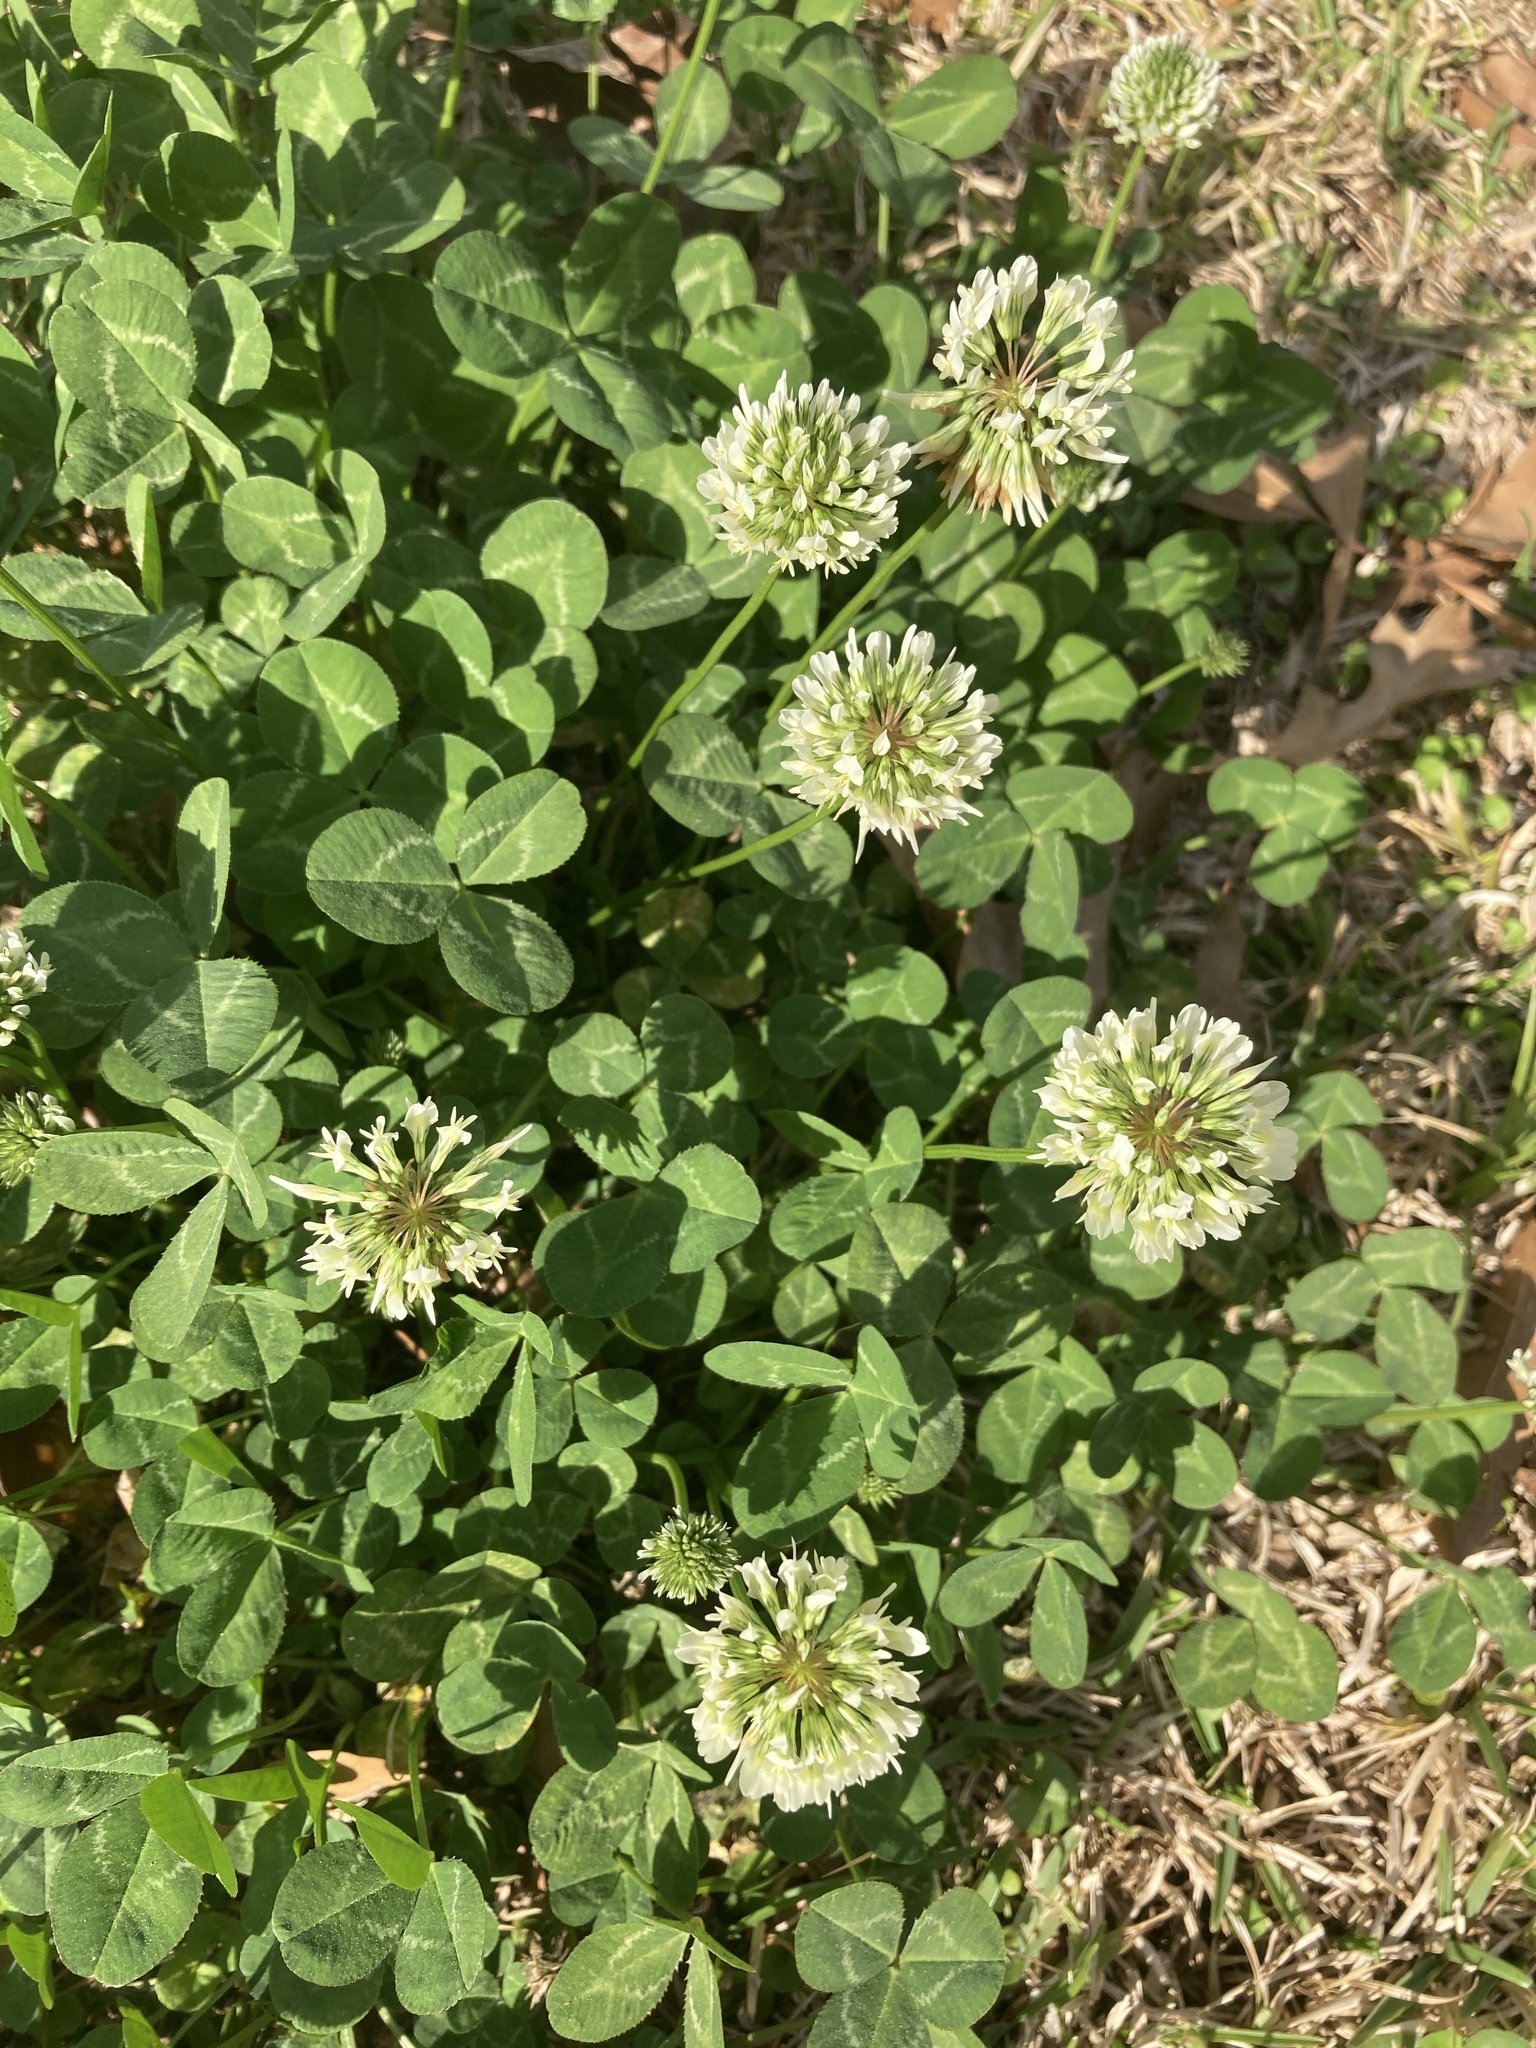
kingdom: Plantae
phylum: Tracheophyta
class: Magnoliopsida
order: Fabales
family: Fabaceae
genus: Trifolium
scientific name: Trifolium repens
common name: White clover
